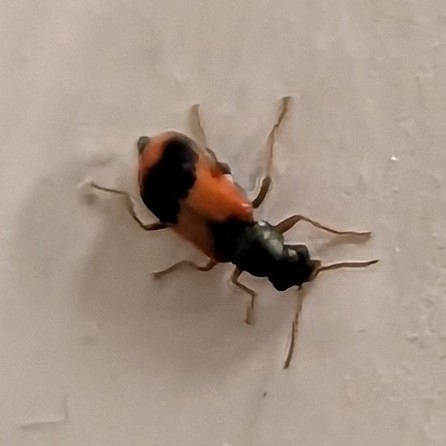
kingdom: Animalia
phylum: Arthropoda
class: Insecta
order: Coleoptera
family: Melyridae
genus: Anthocomus
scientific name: Anthocomus equestris
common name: Black-banded soft-winged flower beetle
